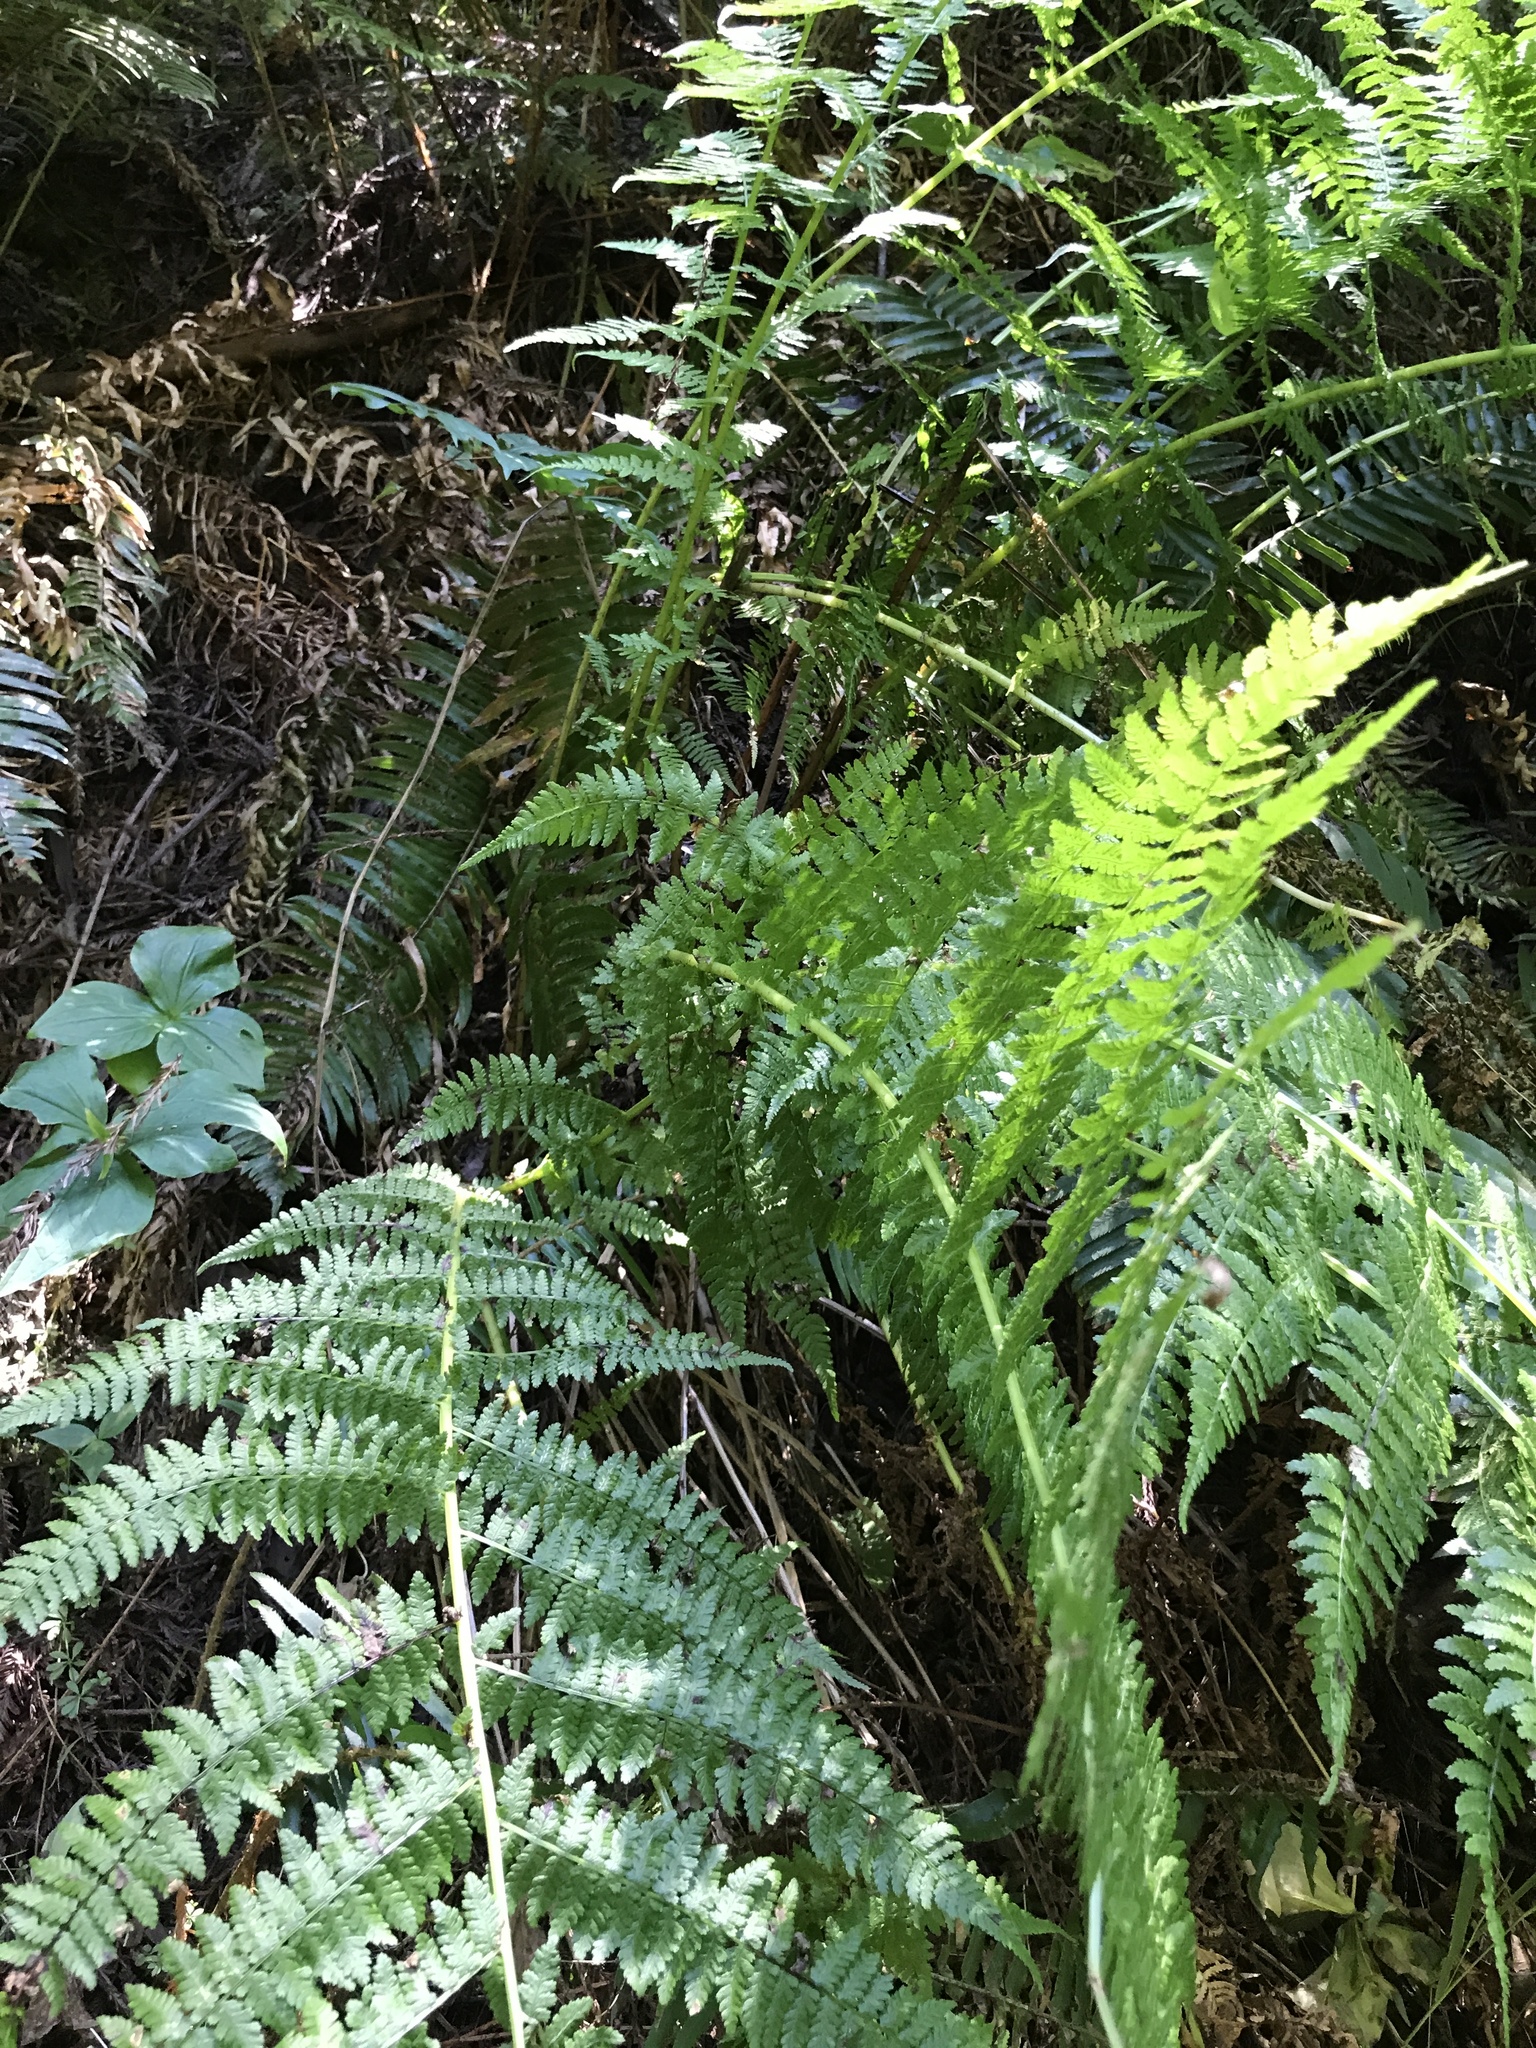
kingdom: Plantae
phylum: Tracheophyta
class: Polypodiopsida
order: Polypodiales
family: Athyriaceae
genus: Athyrium
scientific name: Athyrium filix-femina
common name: Lady fern
